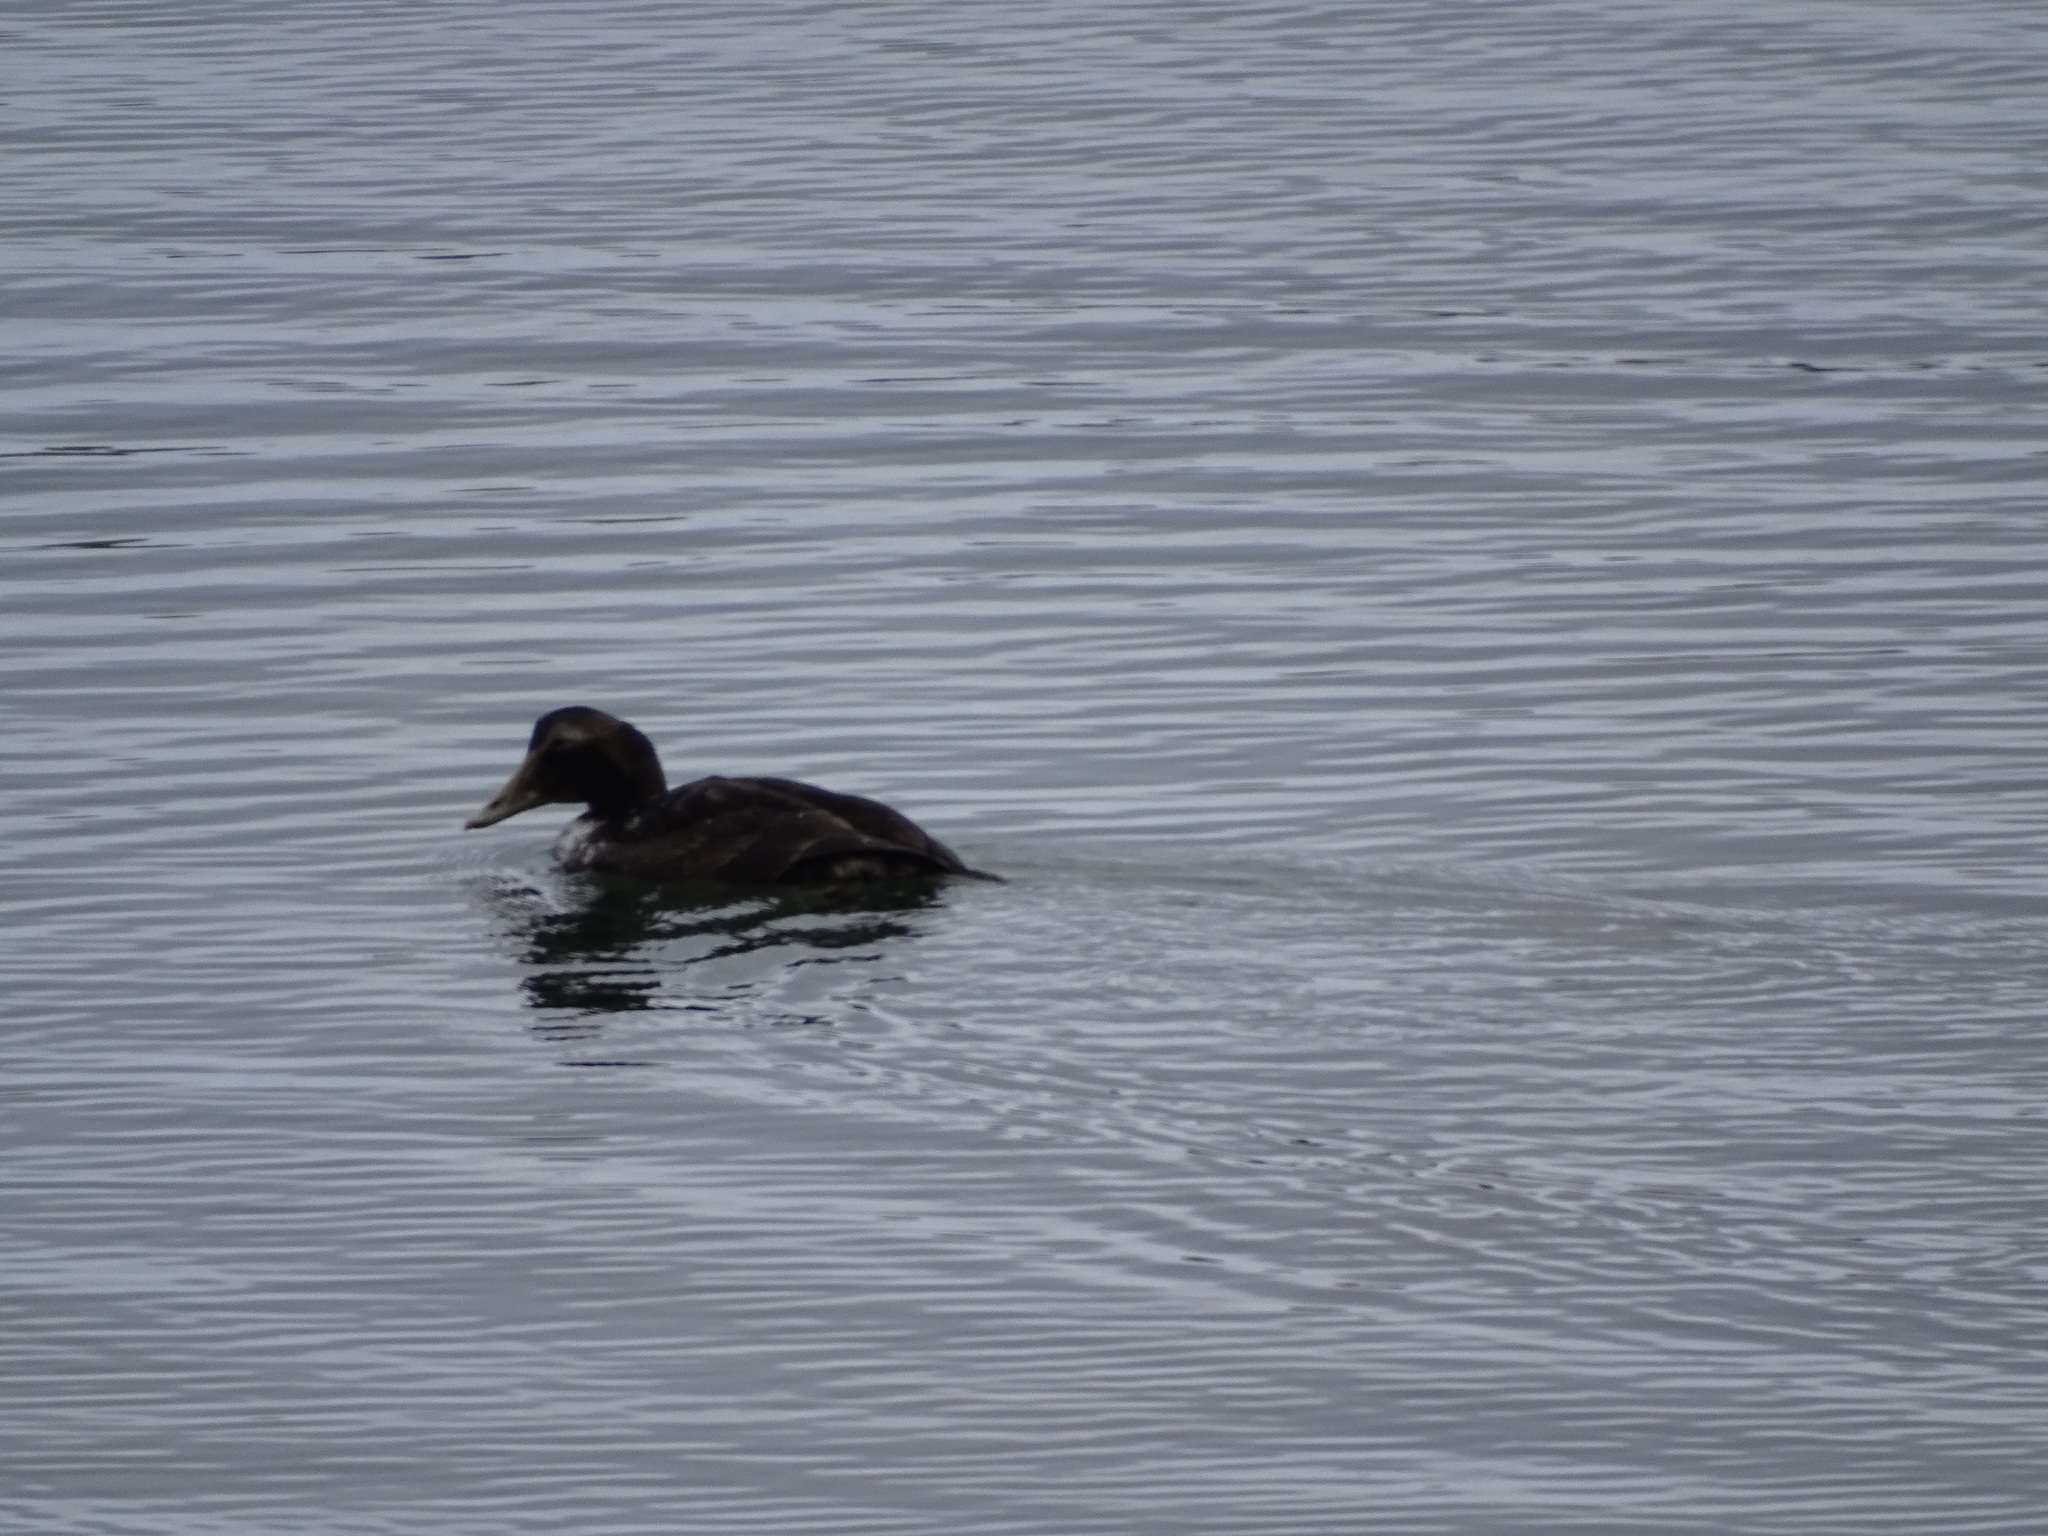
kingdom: Animalia
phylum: Chordata
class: Aves
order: Anseriformes
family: Anatidae
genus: Somateria
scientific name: Somateria mollissima
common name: Common eider
